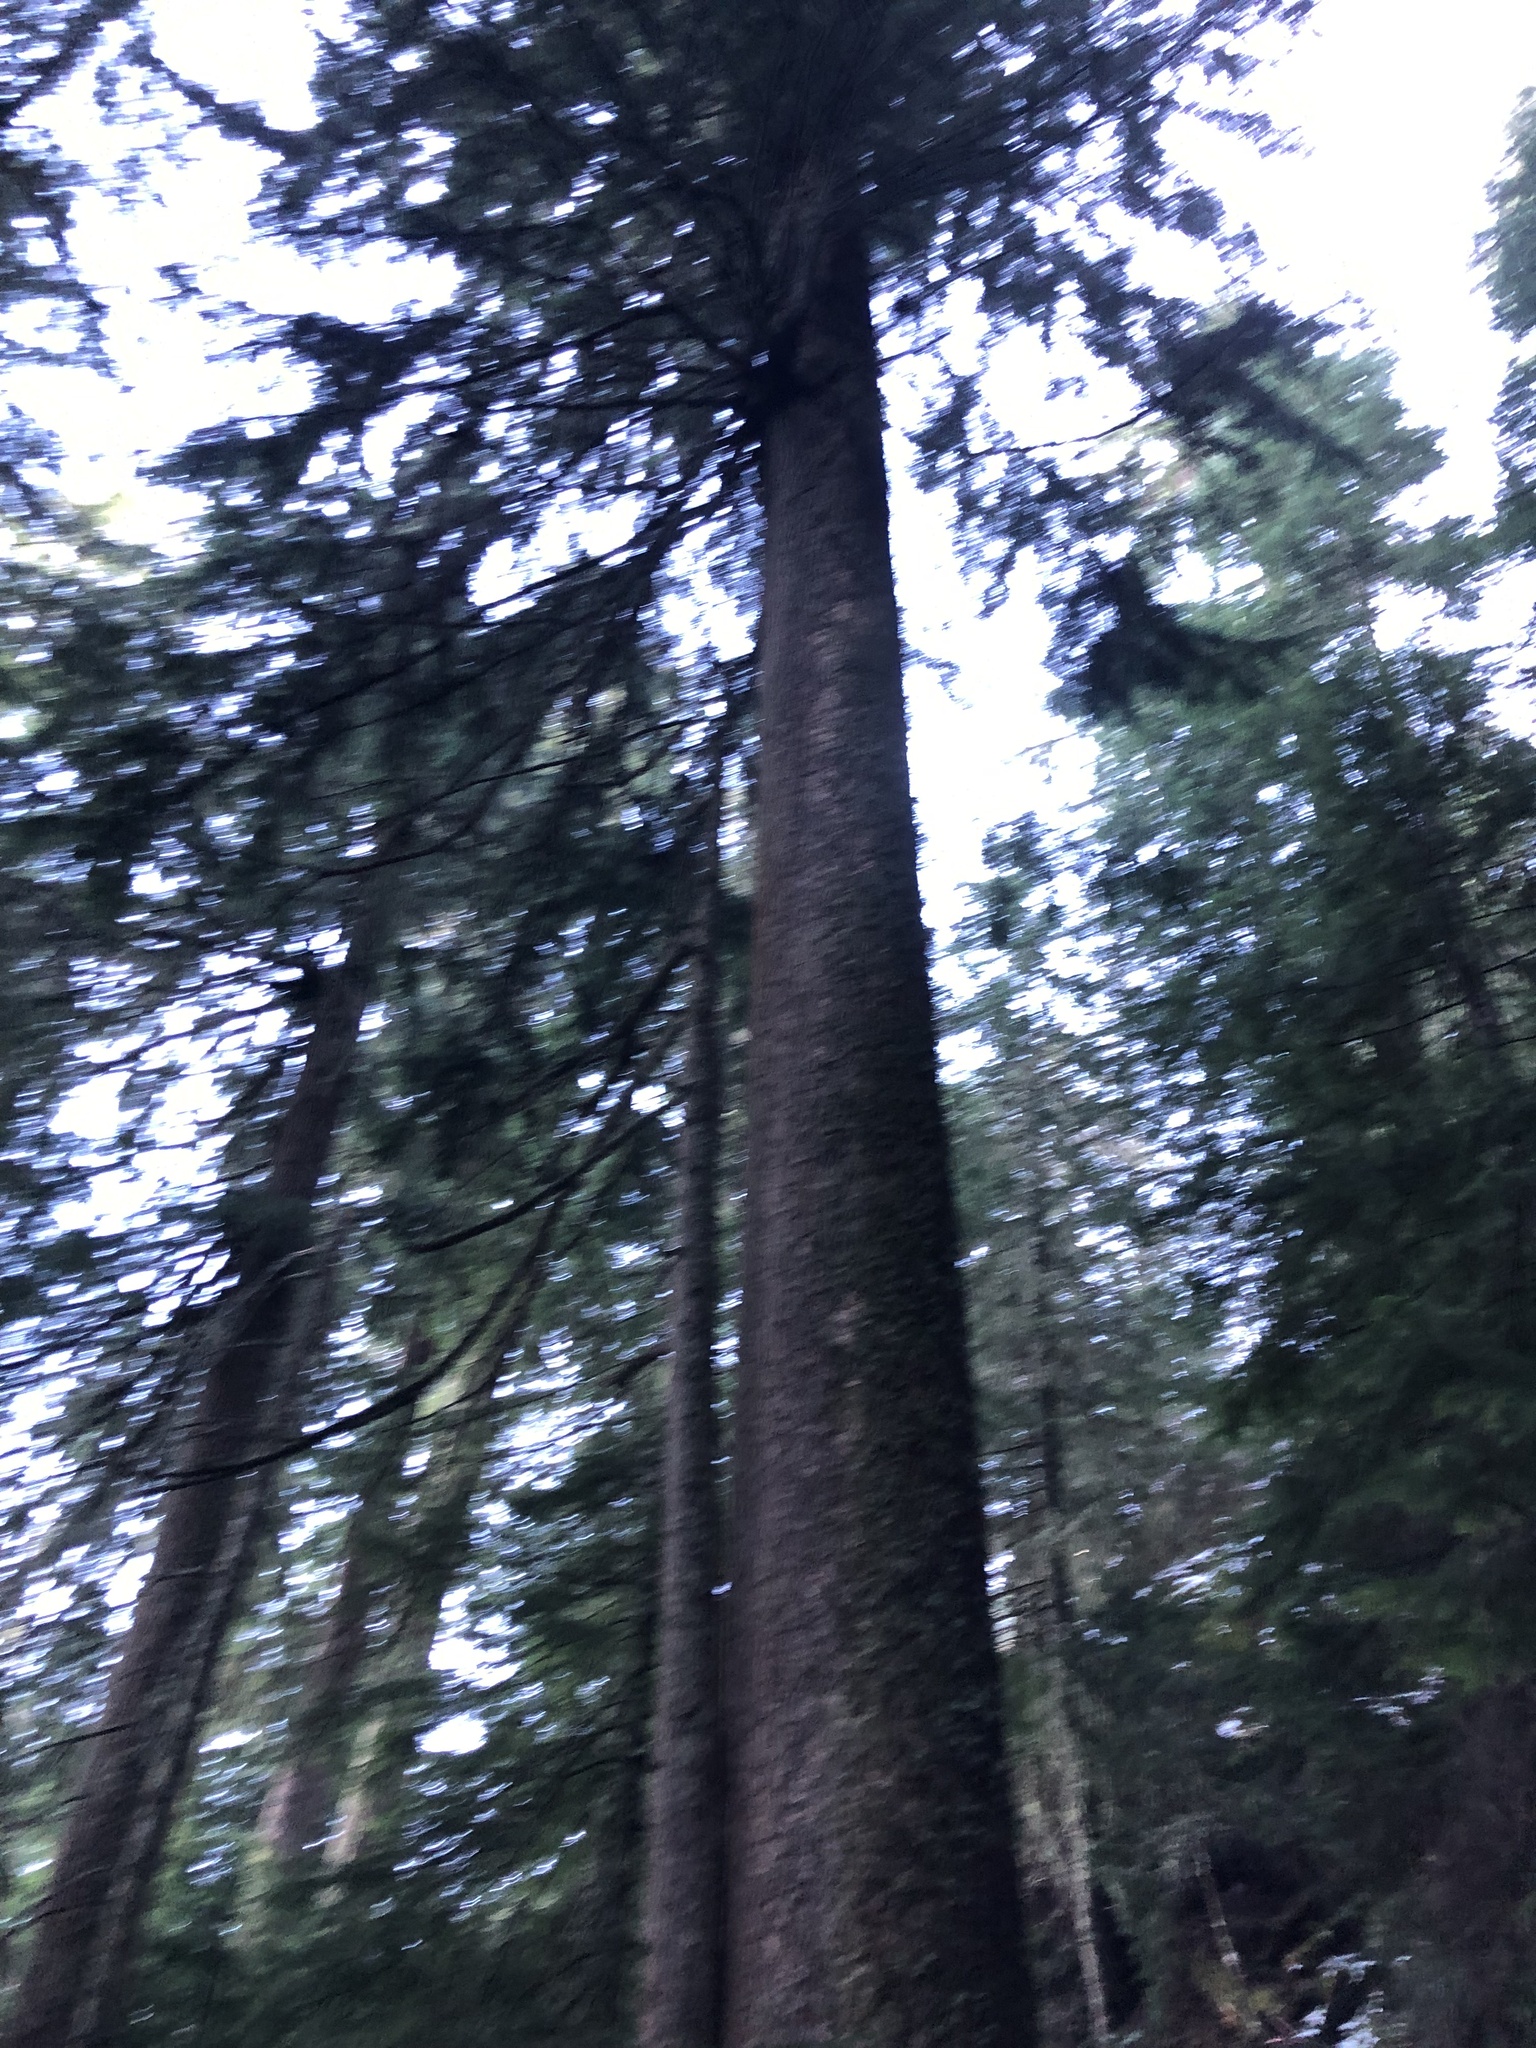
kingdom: Plantae
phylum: Tracheophyta
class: Pinopsida
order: Pinales
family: Pinaceae
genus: Tsuga
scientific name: Tsuga heterophylla
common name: Western hemlock
